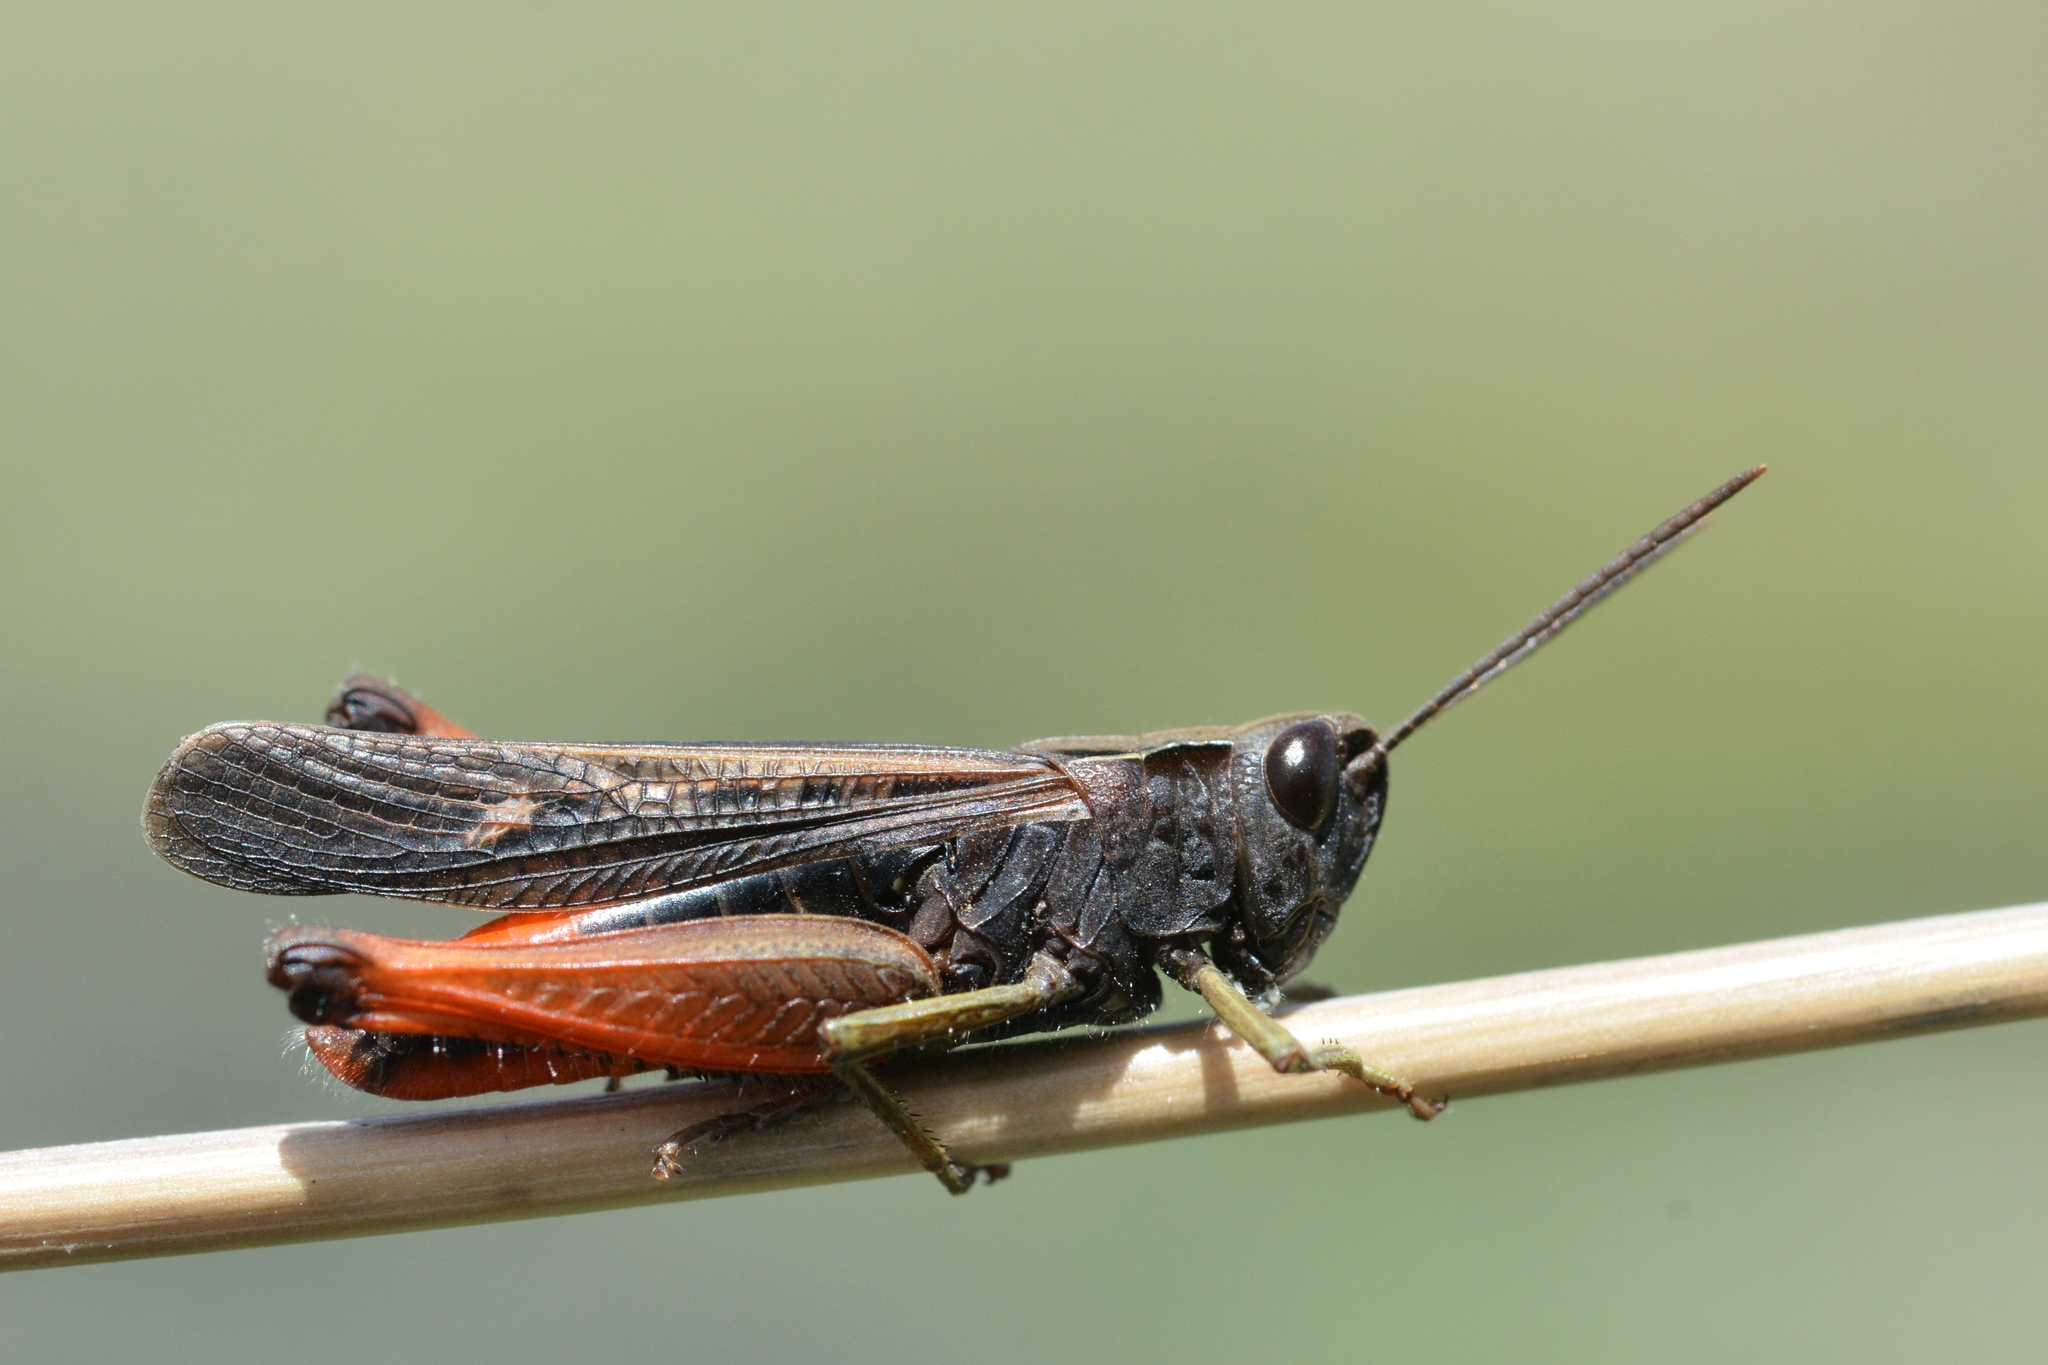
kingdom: Animalia
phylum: Arthropoda
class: Insecta
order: Orthoptera
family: Acrididae
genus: Omocestus
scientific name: Omocestus rufipes
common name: Woodland grasshopper
